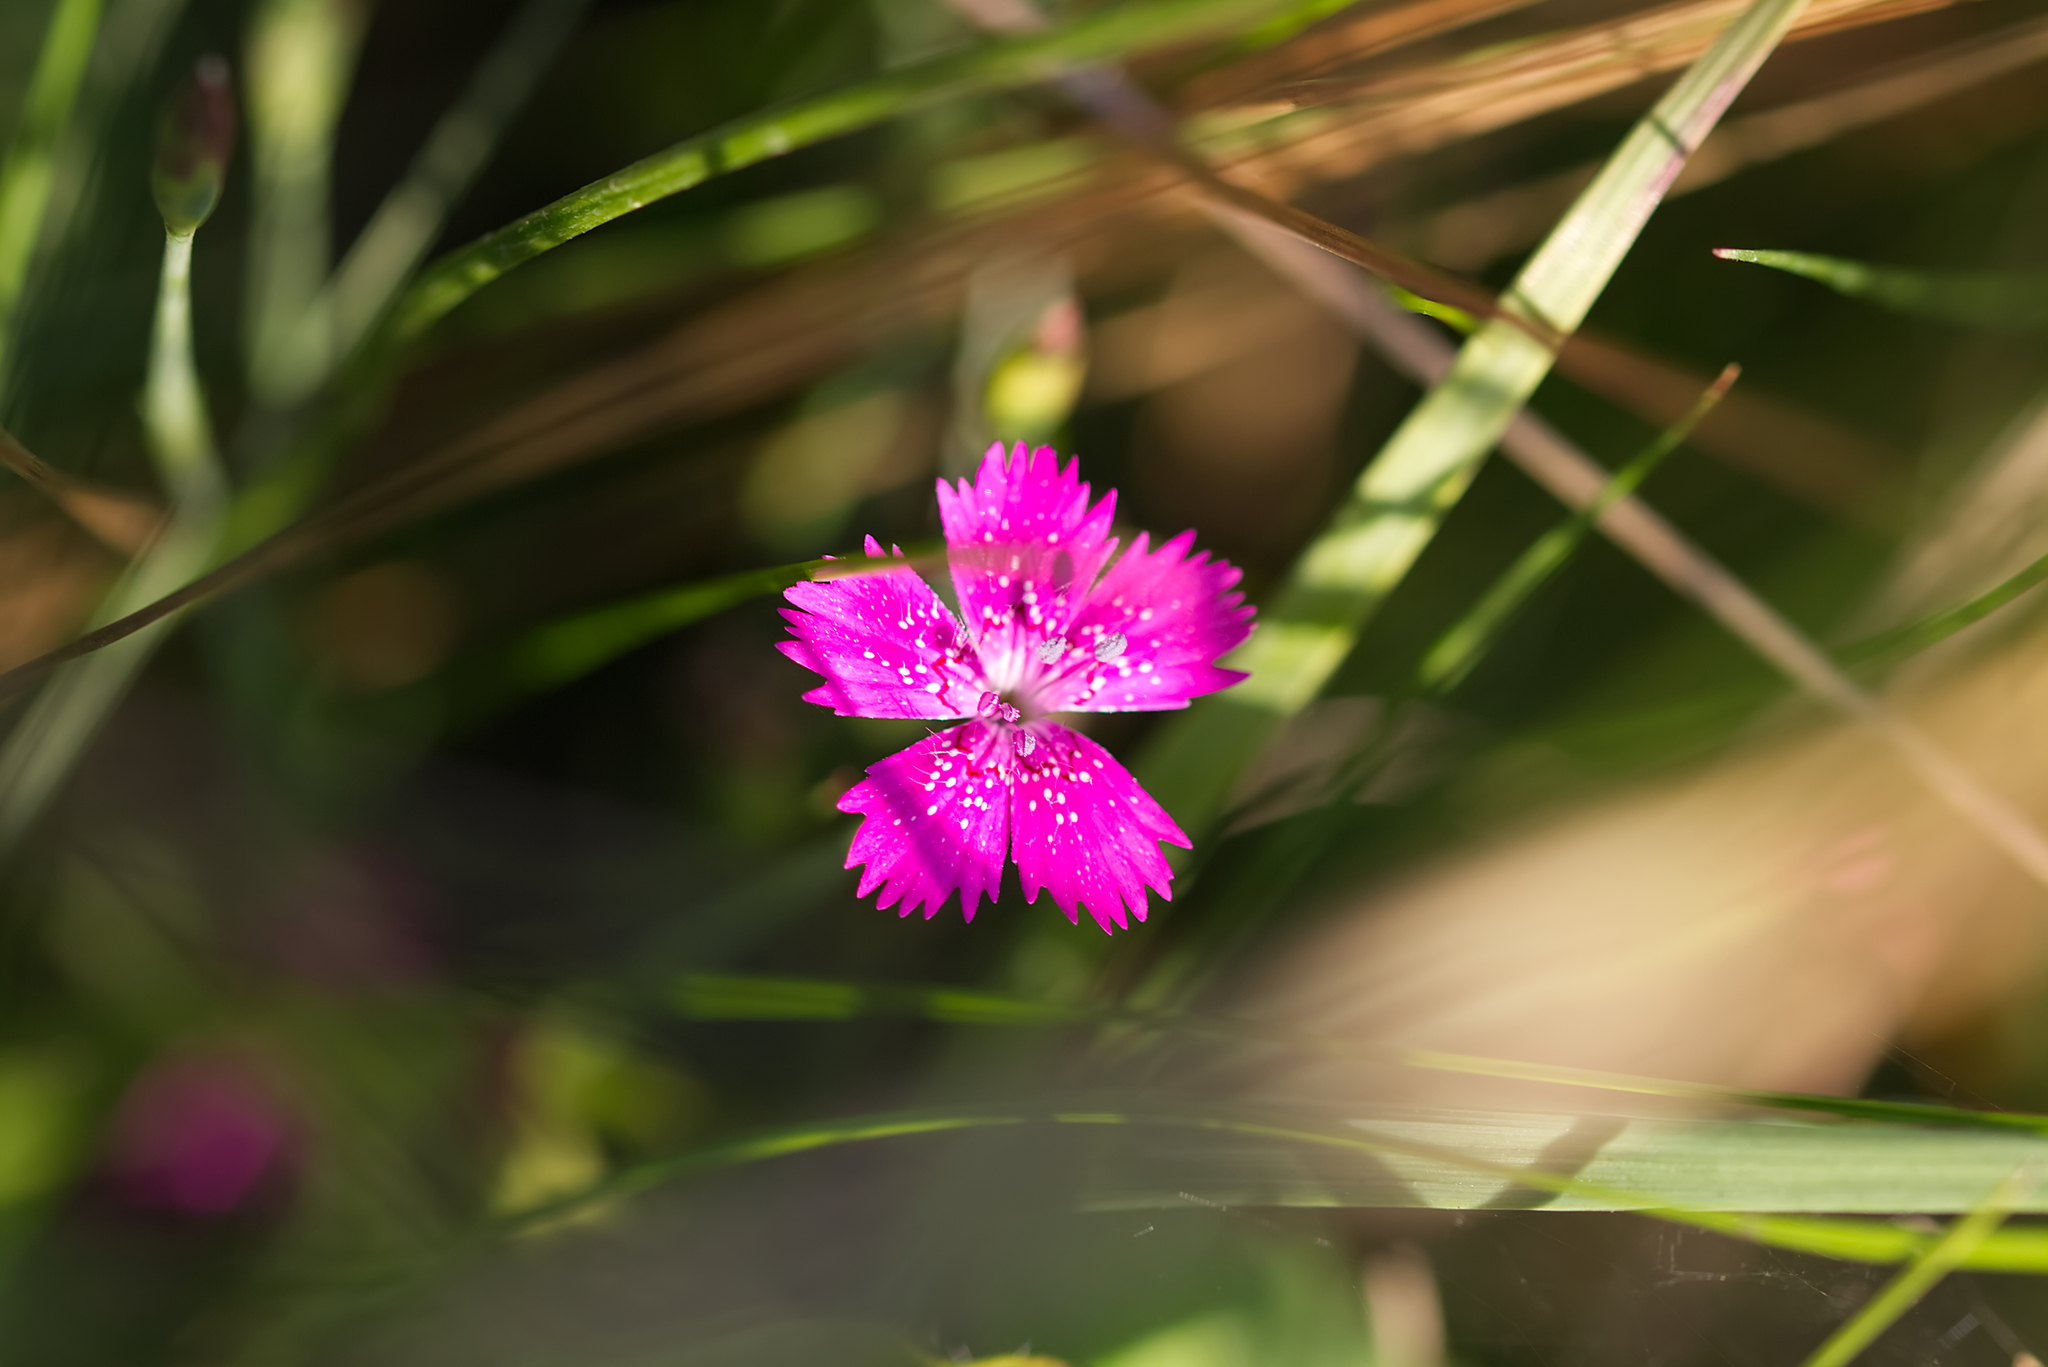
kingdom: Plantae
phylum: Tracheophyta
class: Magnoliopsida
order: Caryophyllales
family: Caryophyllaceae
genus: Dianthus
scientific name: Dianthus deltoides
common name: Maiden pink
